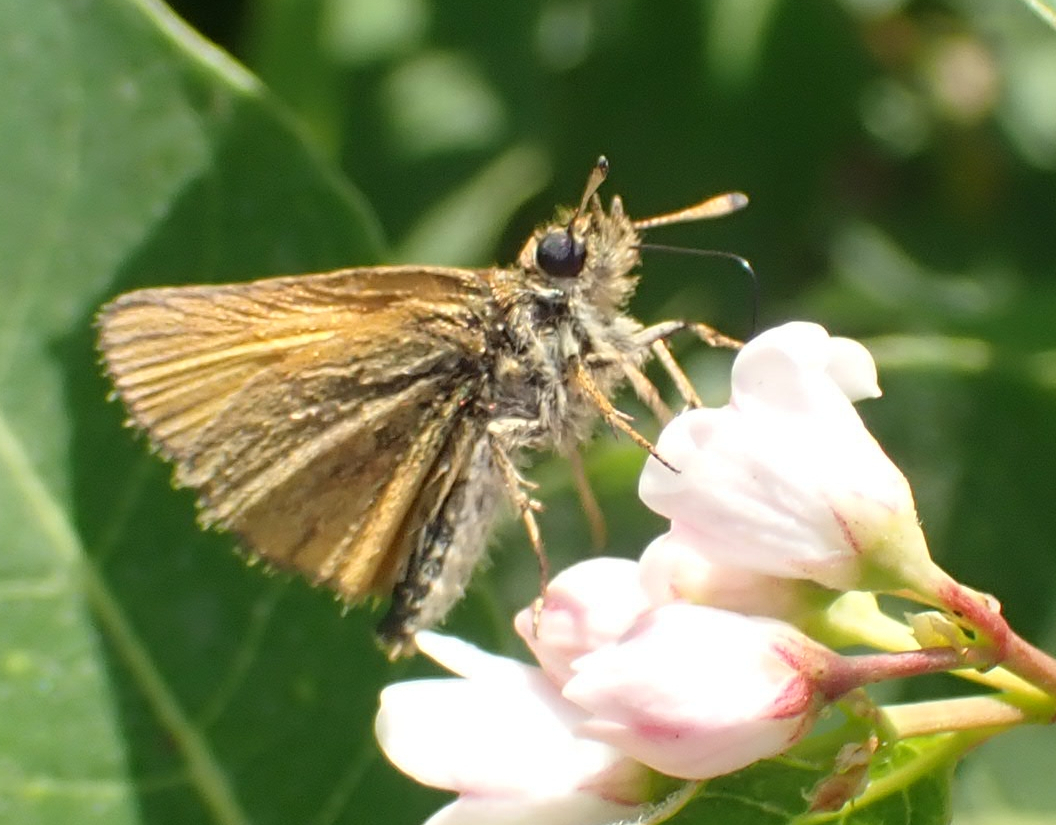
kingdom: Animalia
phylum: Arthropoda
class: Insecta
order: Lepidoptera
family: Hesperiidae
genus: Thymelicus
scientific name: Thymelicus lineola
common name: Essex skipper
